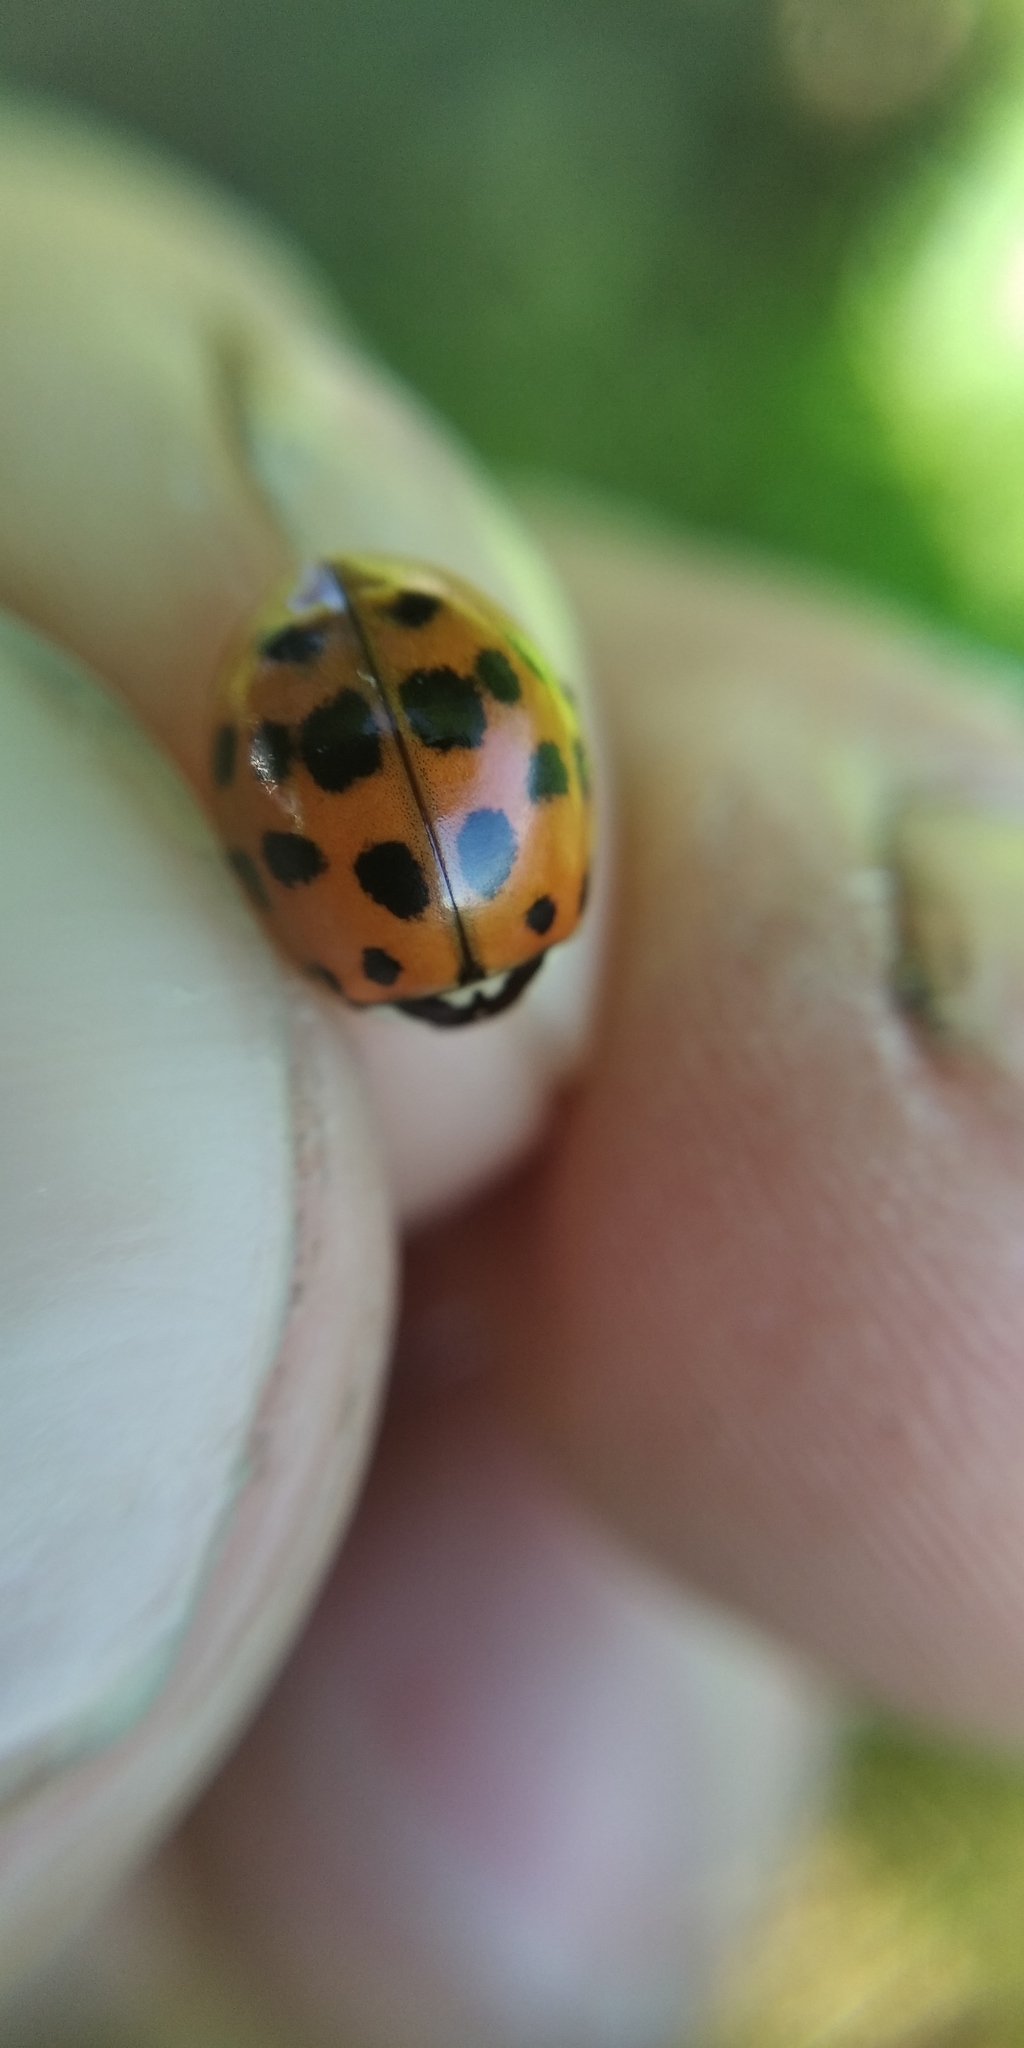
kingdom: Animalia
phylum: Arthropoda
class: Insecta
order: Coleoptera
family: Coccinellidae
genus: Harmonia
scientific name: Harmonia axyridis
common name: Harlequin ladybird
